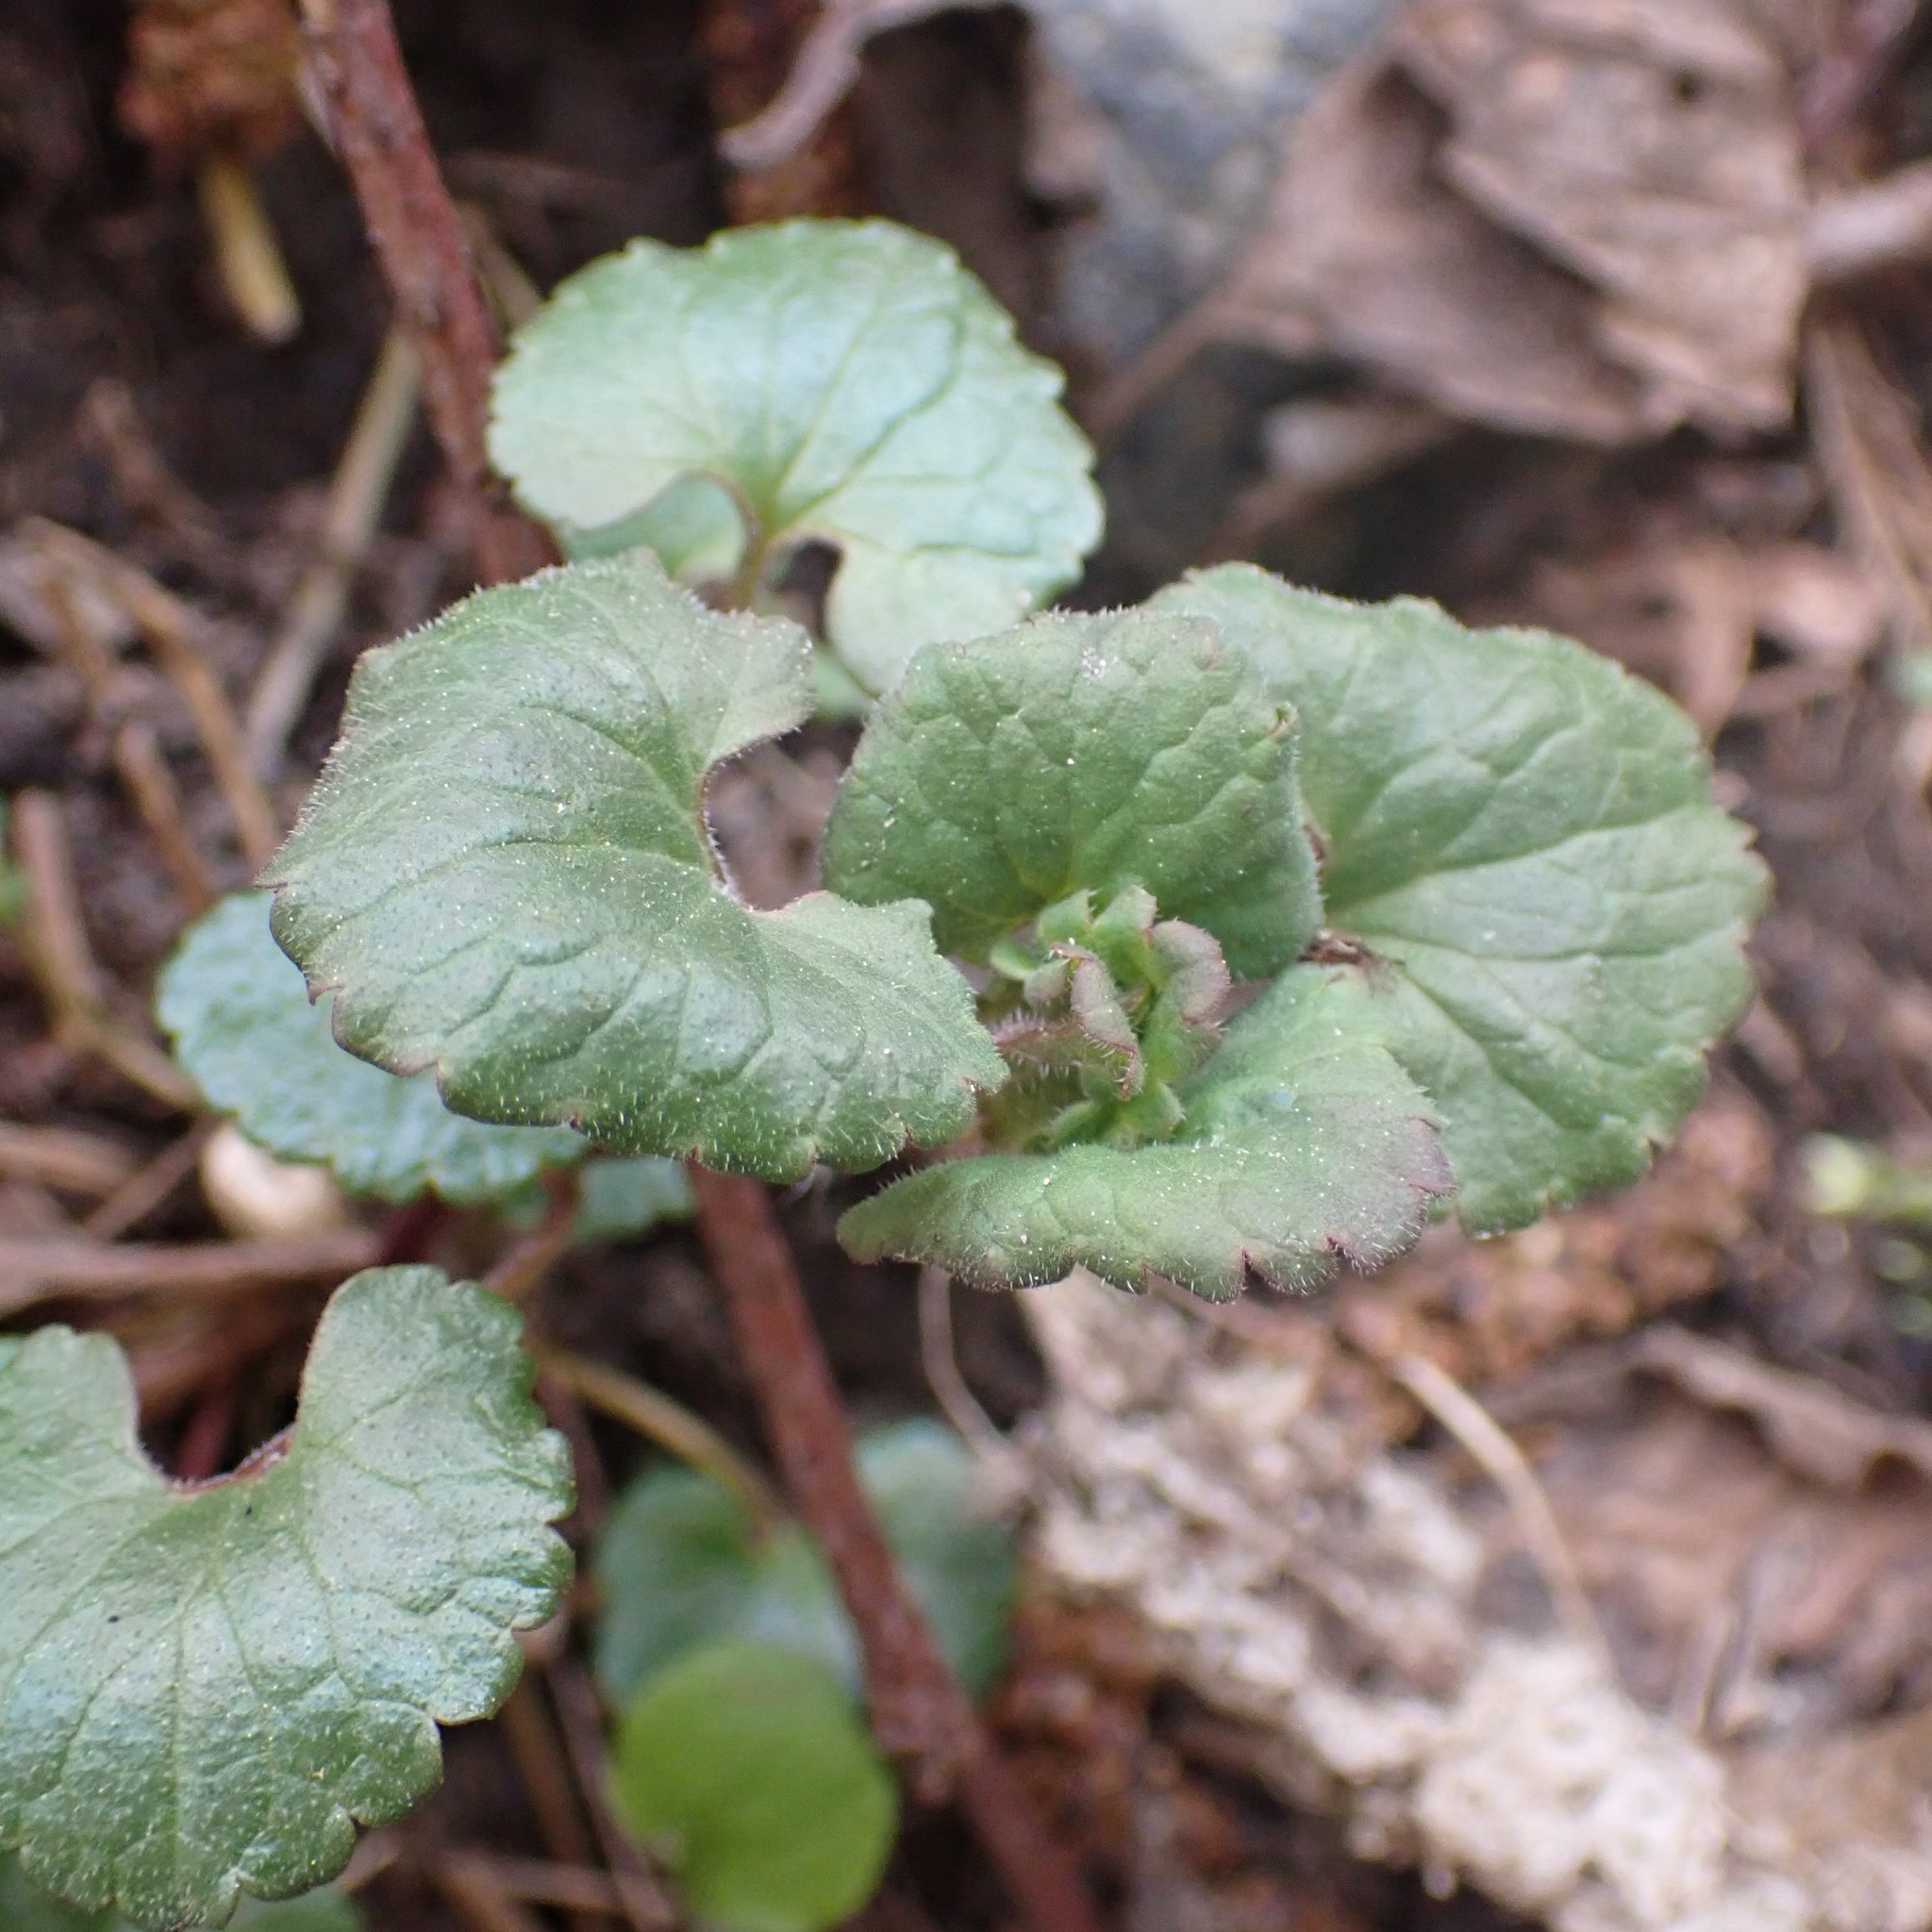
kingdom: Plantae
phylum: Tracheophyta
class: Magnoliopsida
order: Lamiales
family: Lamiaceae
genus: Glechoma
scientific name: Glechoma hederacea
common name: Ground ivy
